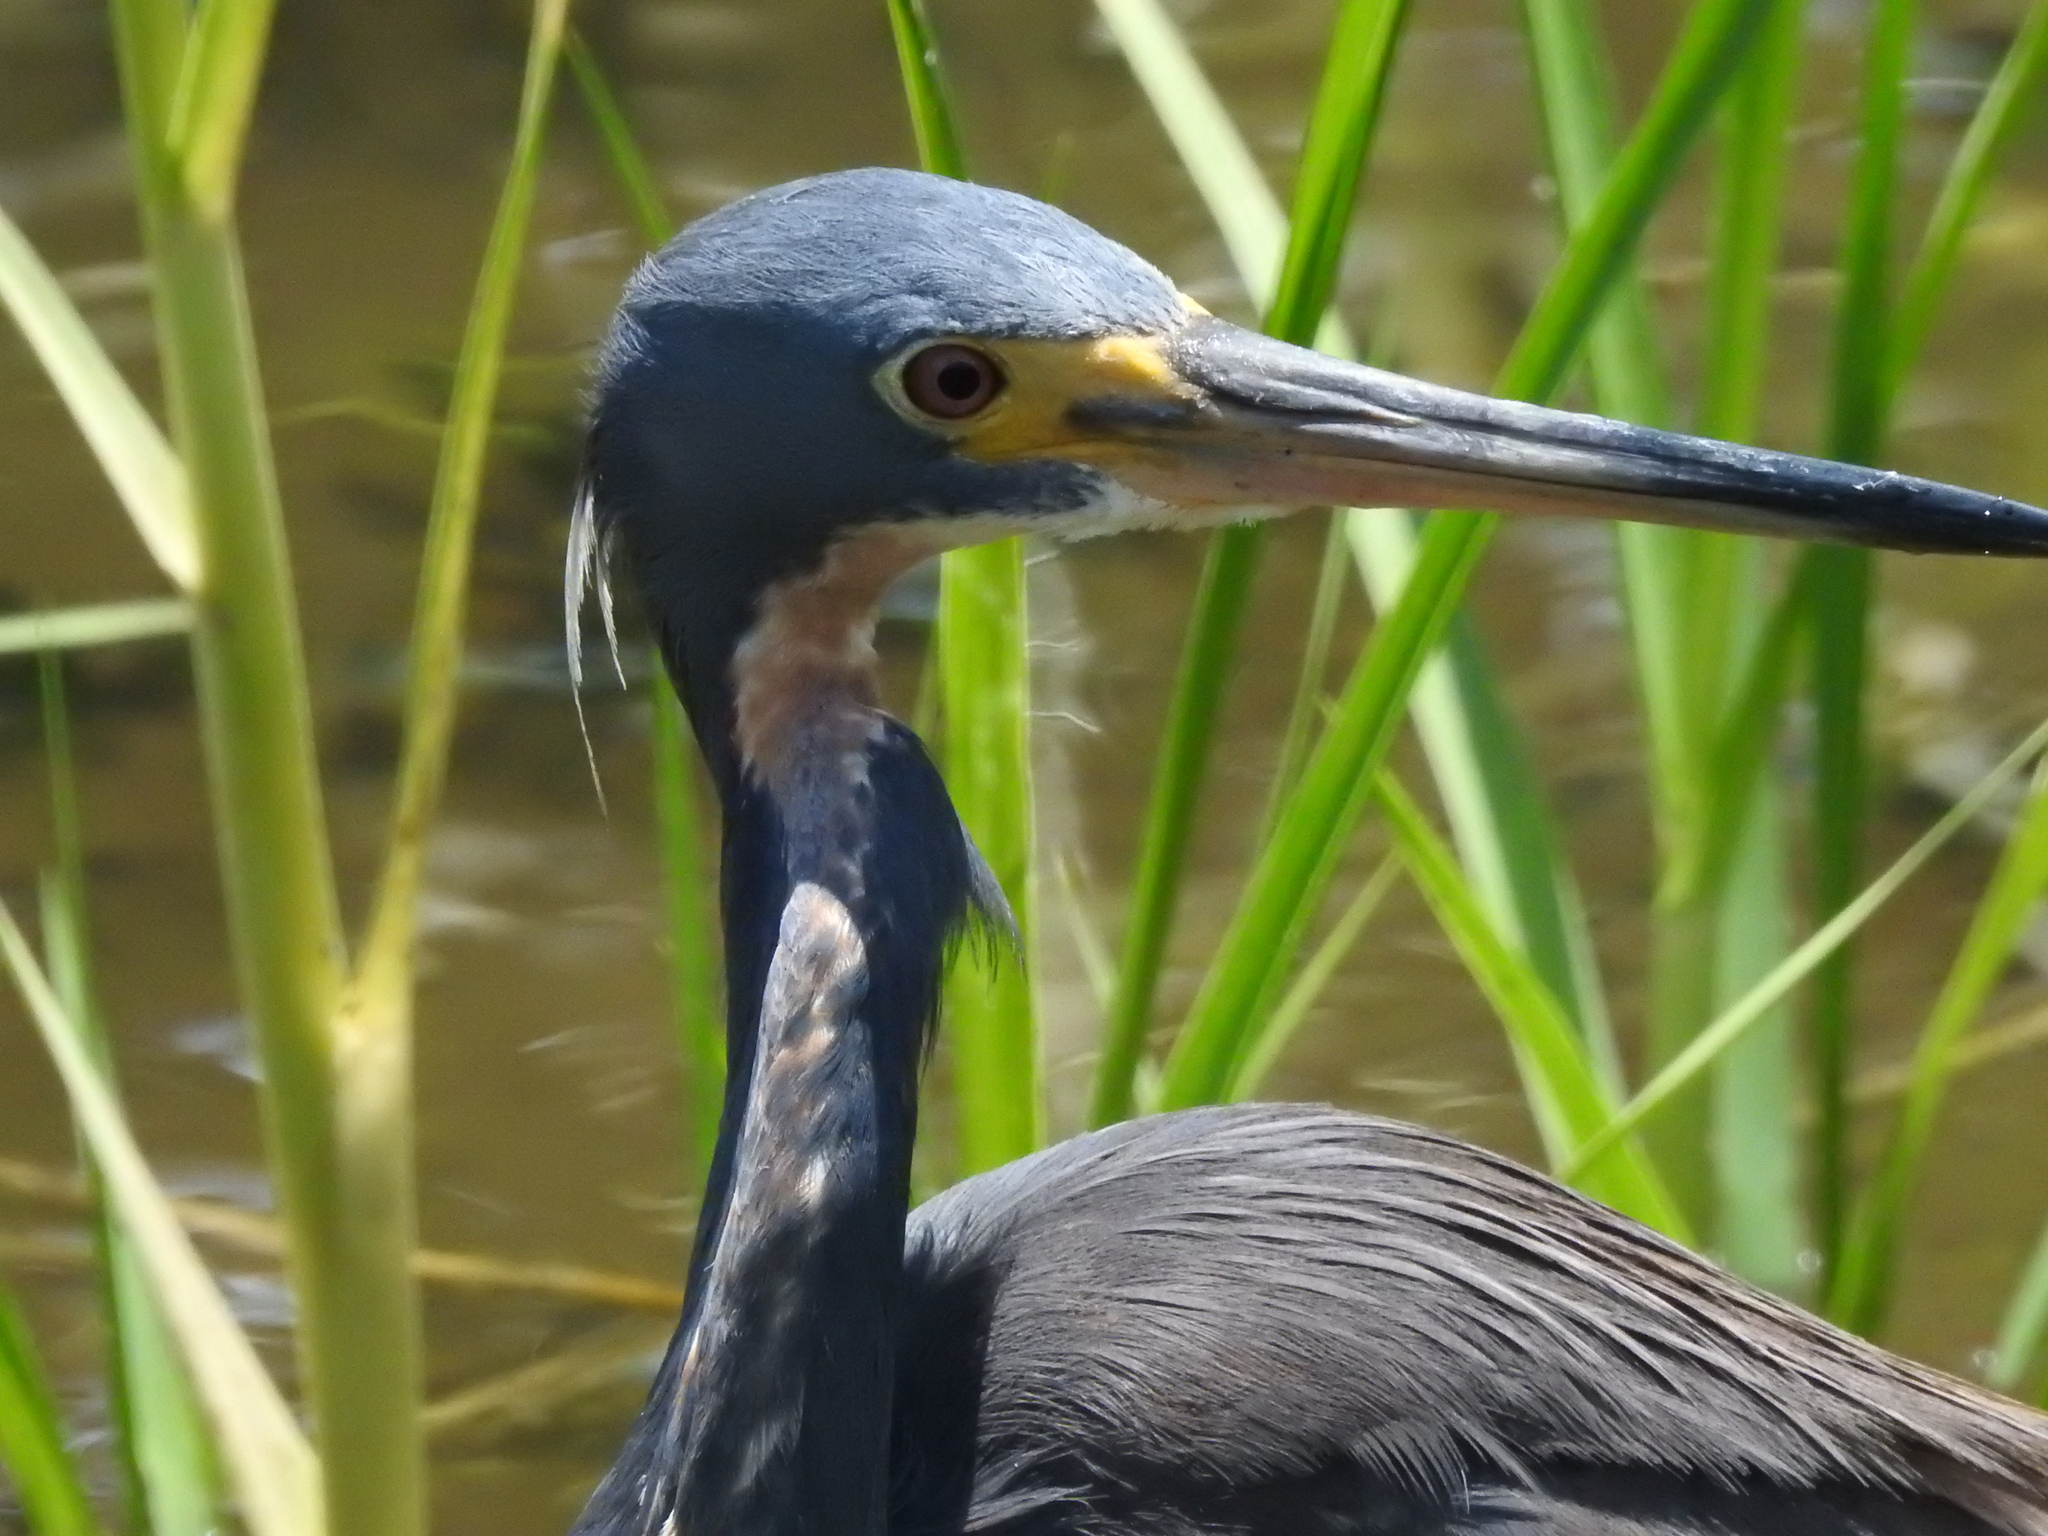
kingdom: Animalia
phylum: Chordata
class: Aves
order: Pelecaniformes
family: Ardeidae
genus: Egretta
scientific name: Egretta tricolor
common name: Tricolored heron
